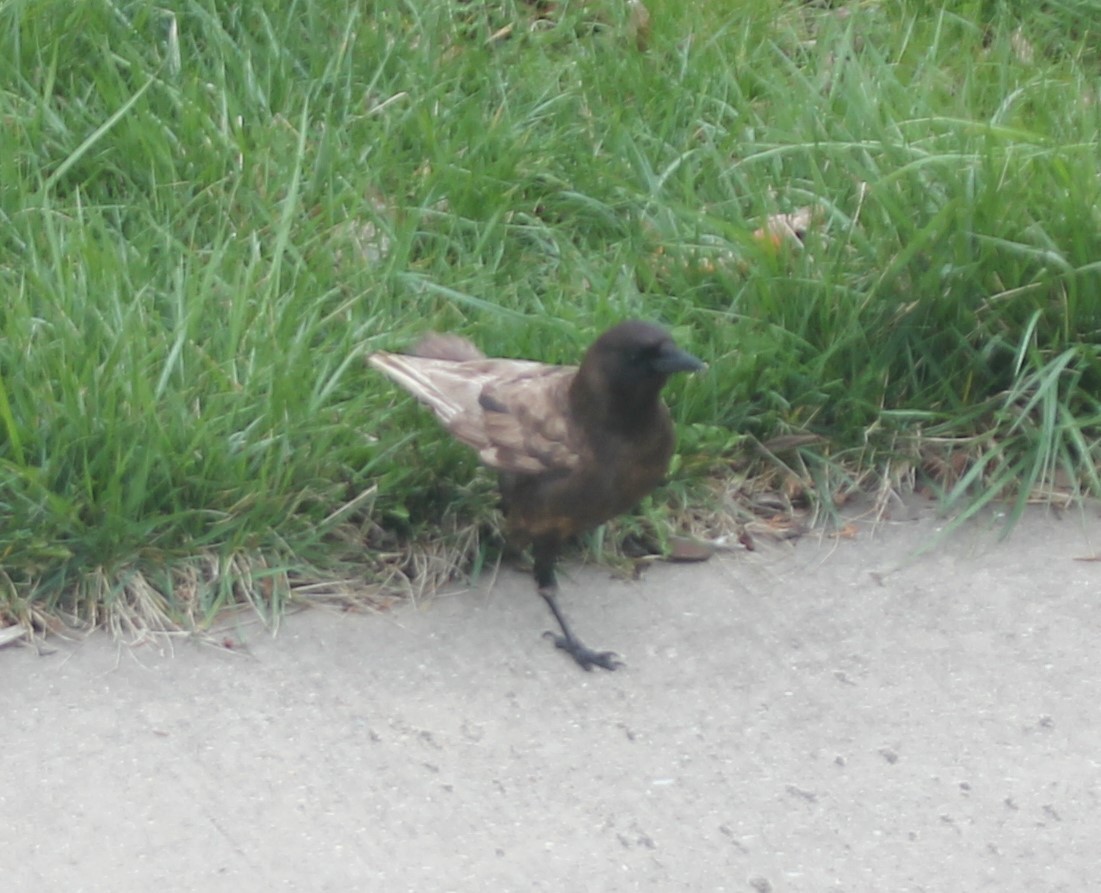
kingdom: Animalia
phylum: Chordata
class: Aves
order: Passeriformes
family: Corvidae
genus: Corvus
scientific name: Corvus brachyrhynchos
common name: American crow
